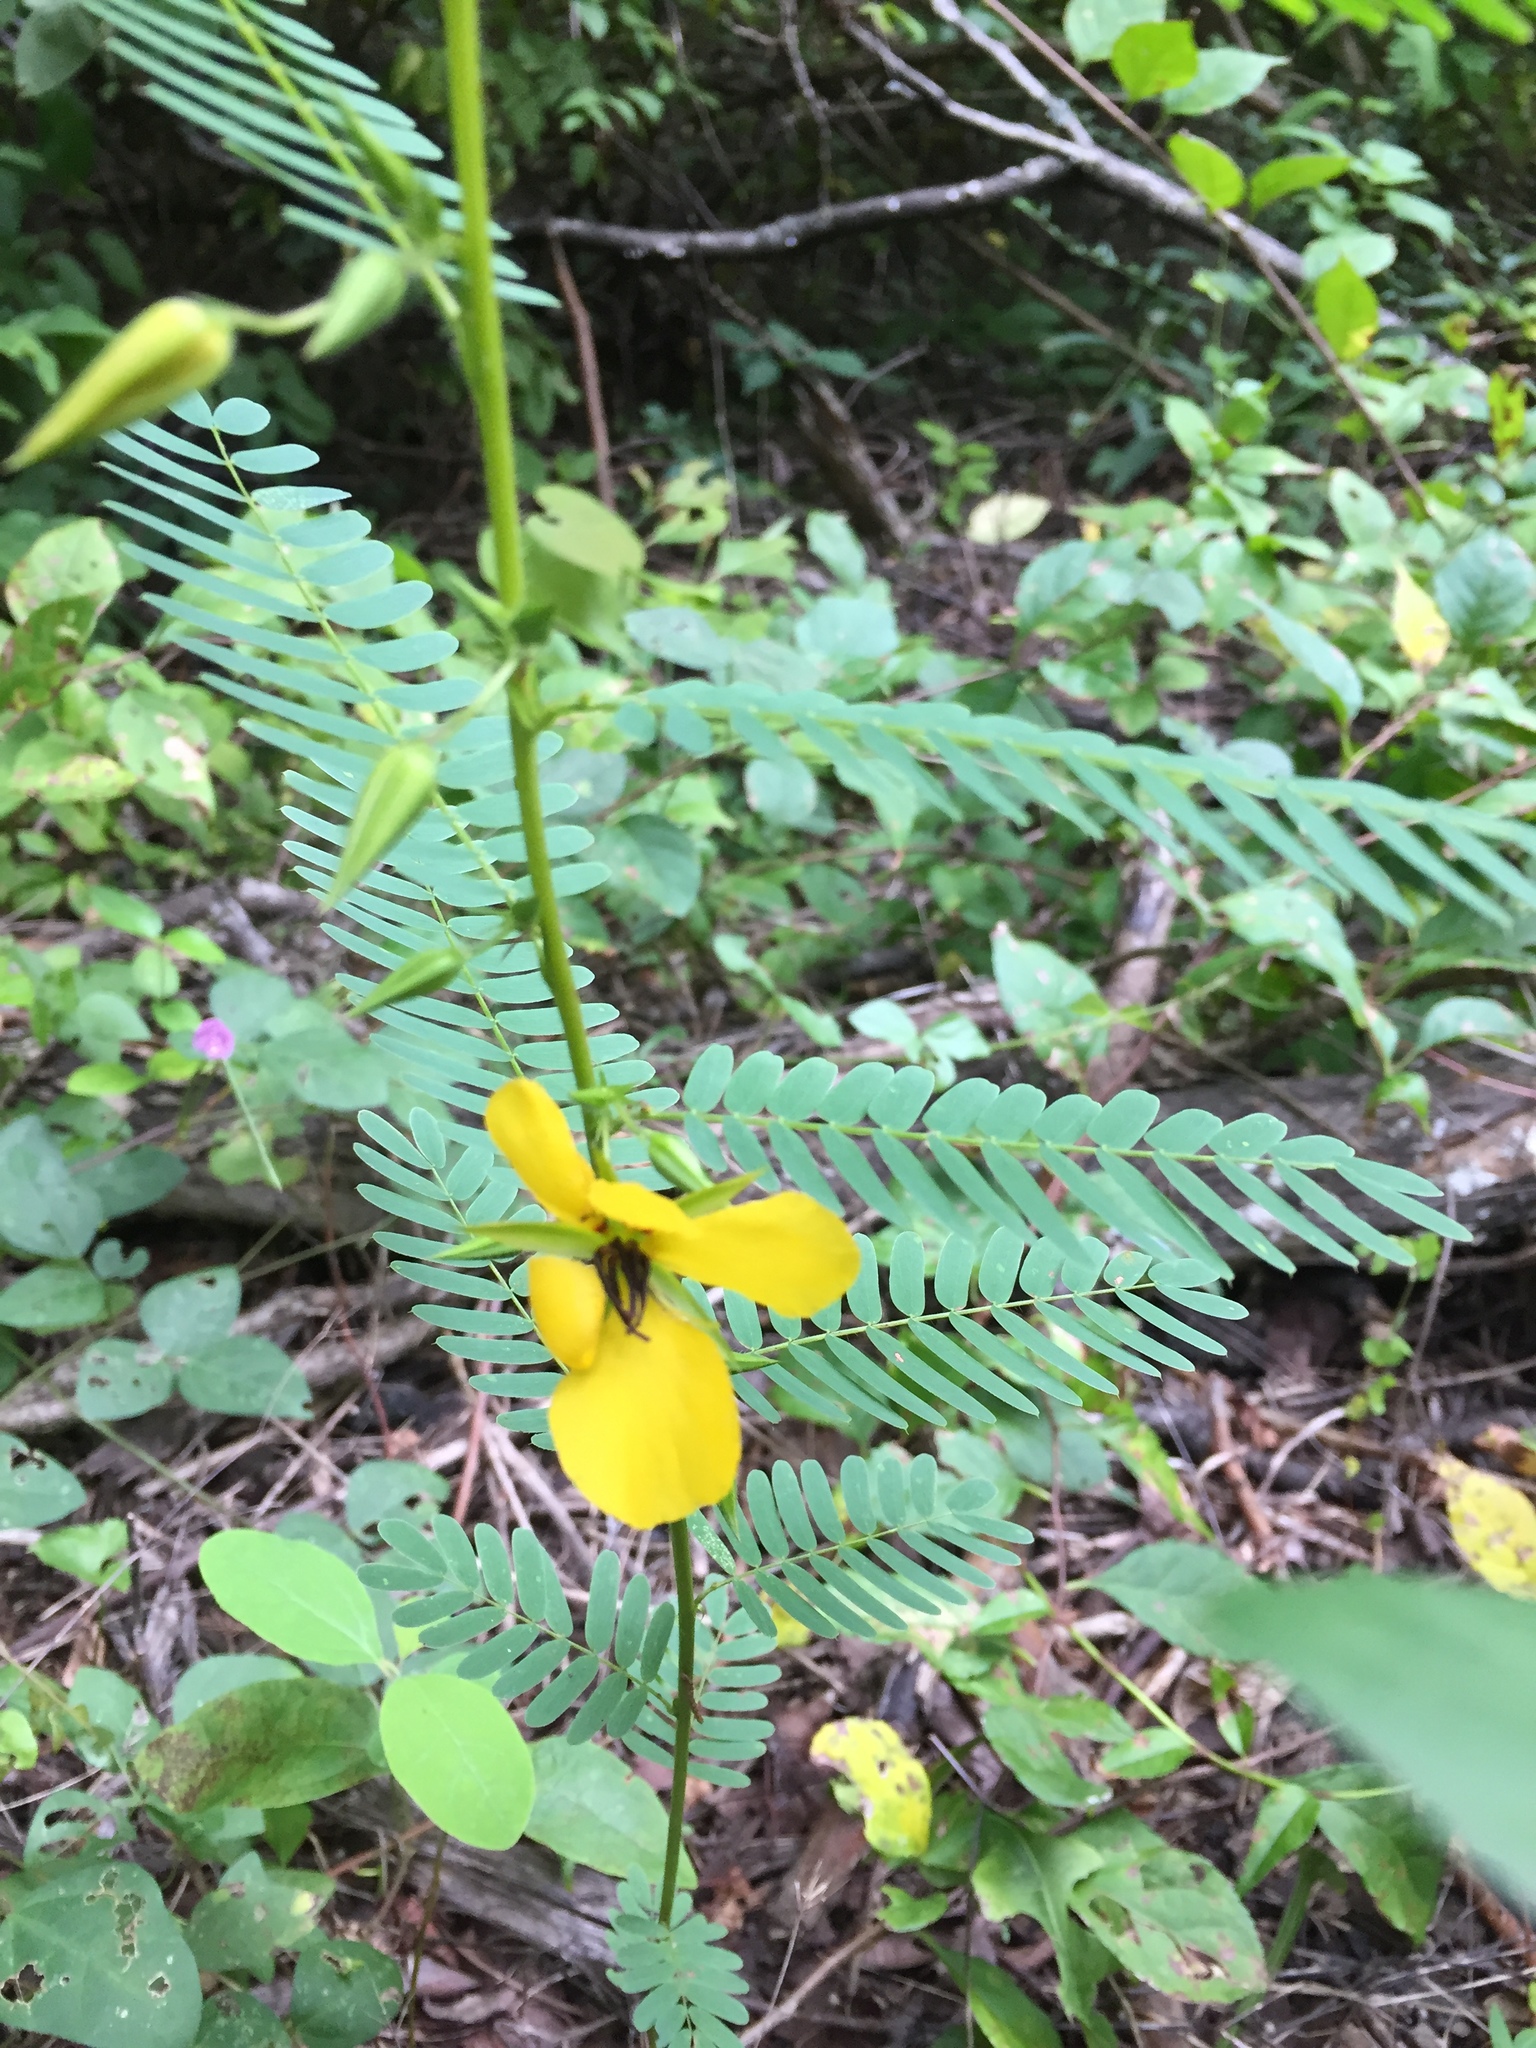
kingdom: Plantae
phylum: Tracheophyta
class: Magnoliopsida
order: Fabales
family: Fabaceae
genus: Chamaecrista
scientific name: Chamaecrista fasciculata
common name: Golden cassia
